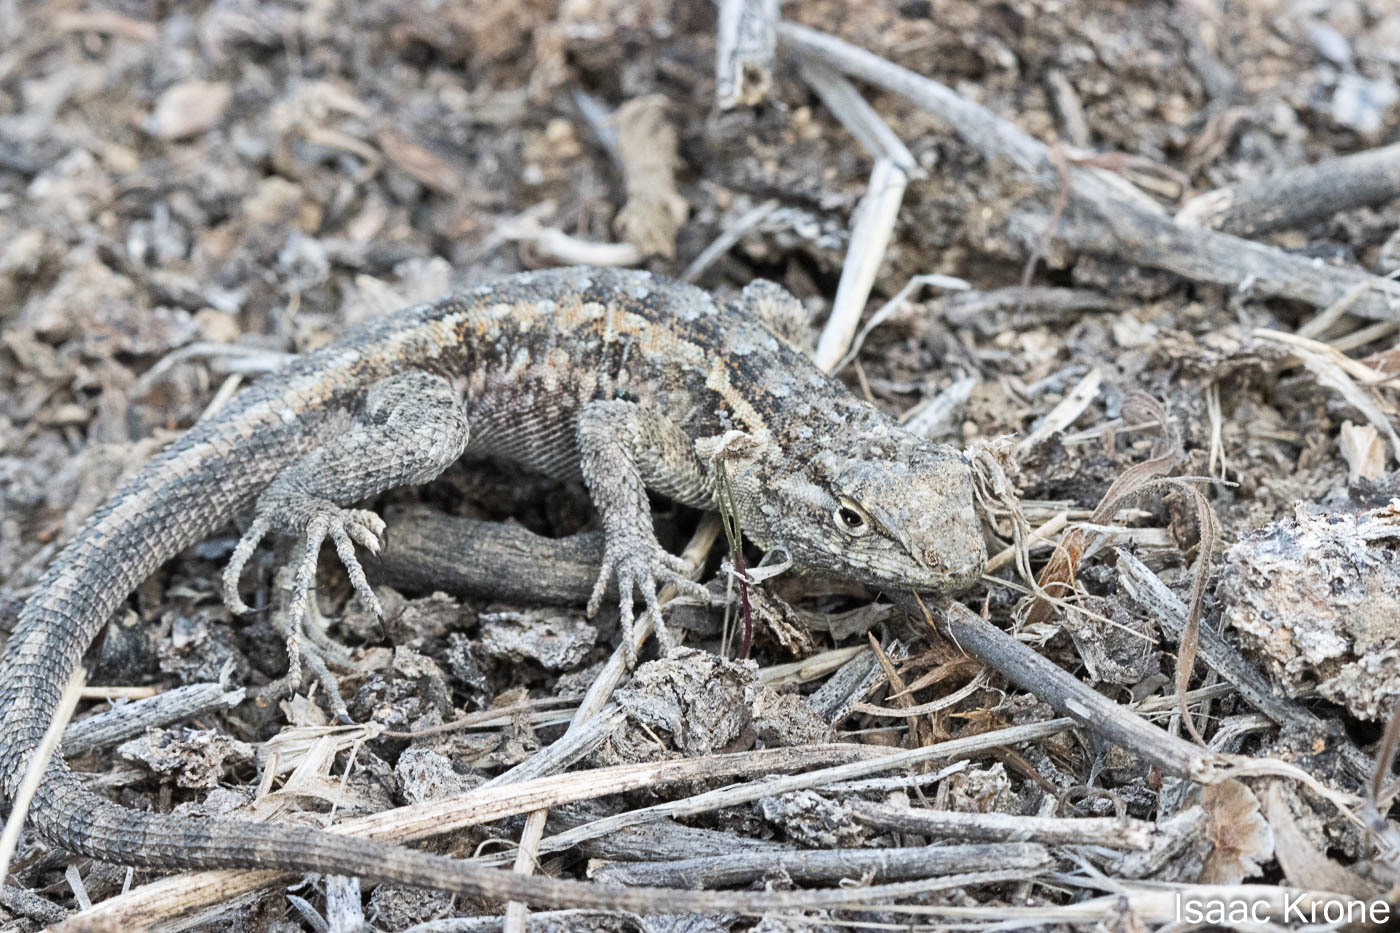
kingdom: Animalia
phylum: Chordata
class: Squamata
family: Phrynosomatidae
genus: Uta
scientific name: Uta stansburiana
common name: Side-blotched lizard
